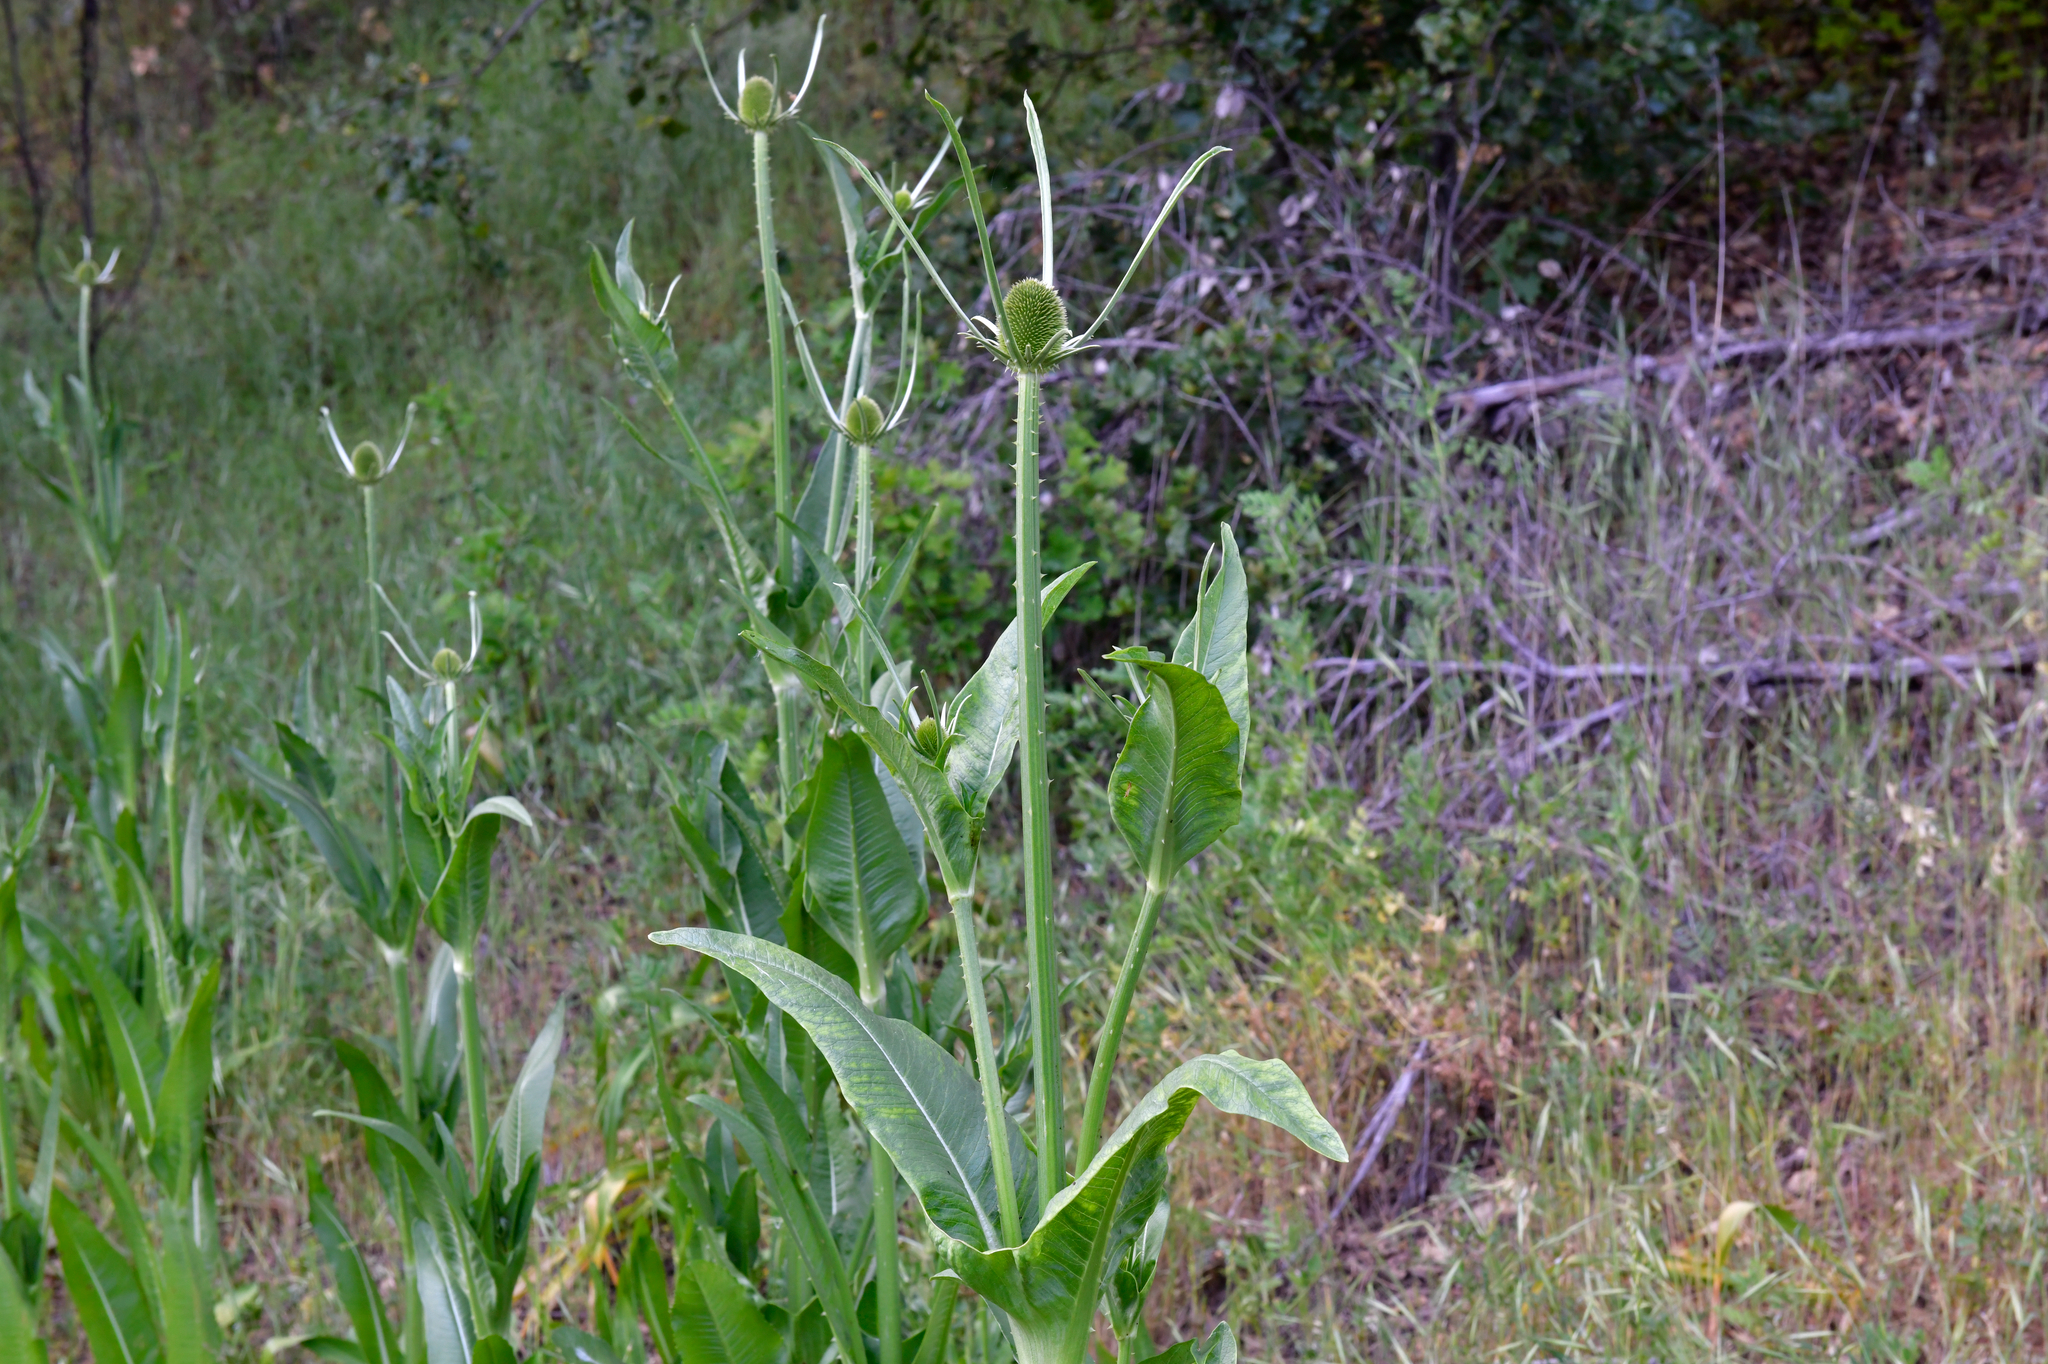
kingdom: Plantae
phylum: Tracheophyta
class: Magnoliopsida
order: Dipsacales
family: Caprifoliaceae
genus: Dipsacus
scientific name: Dipsacus sativus
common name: Fuller's teasel
